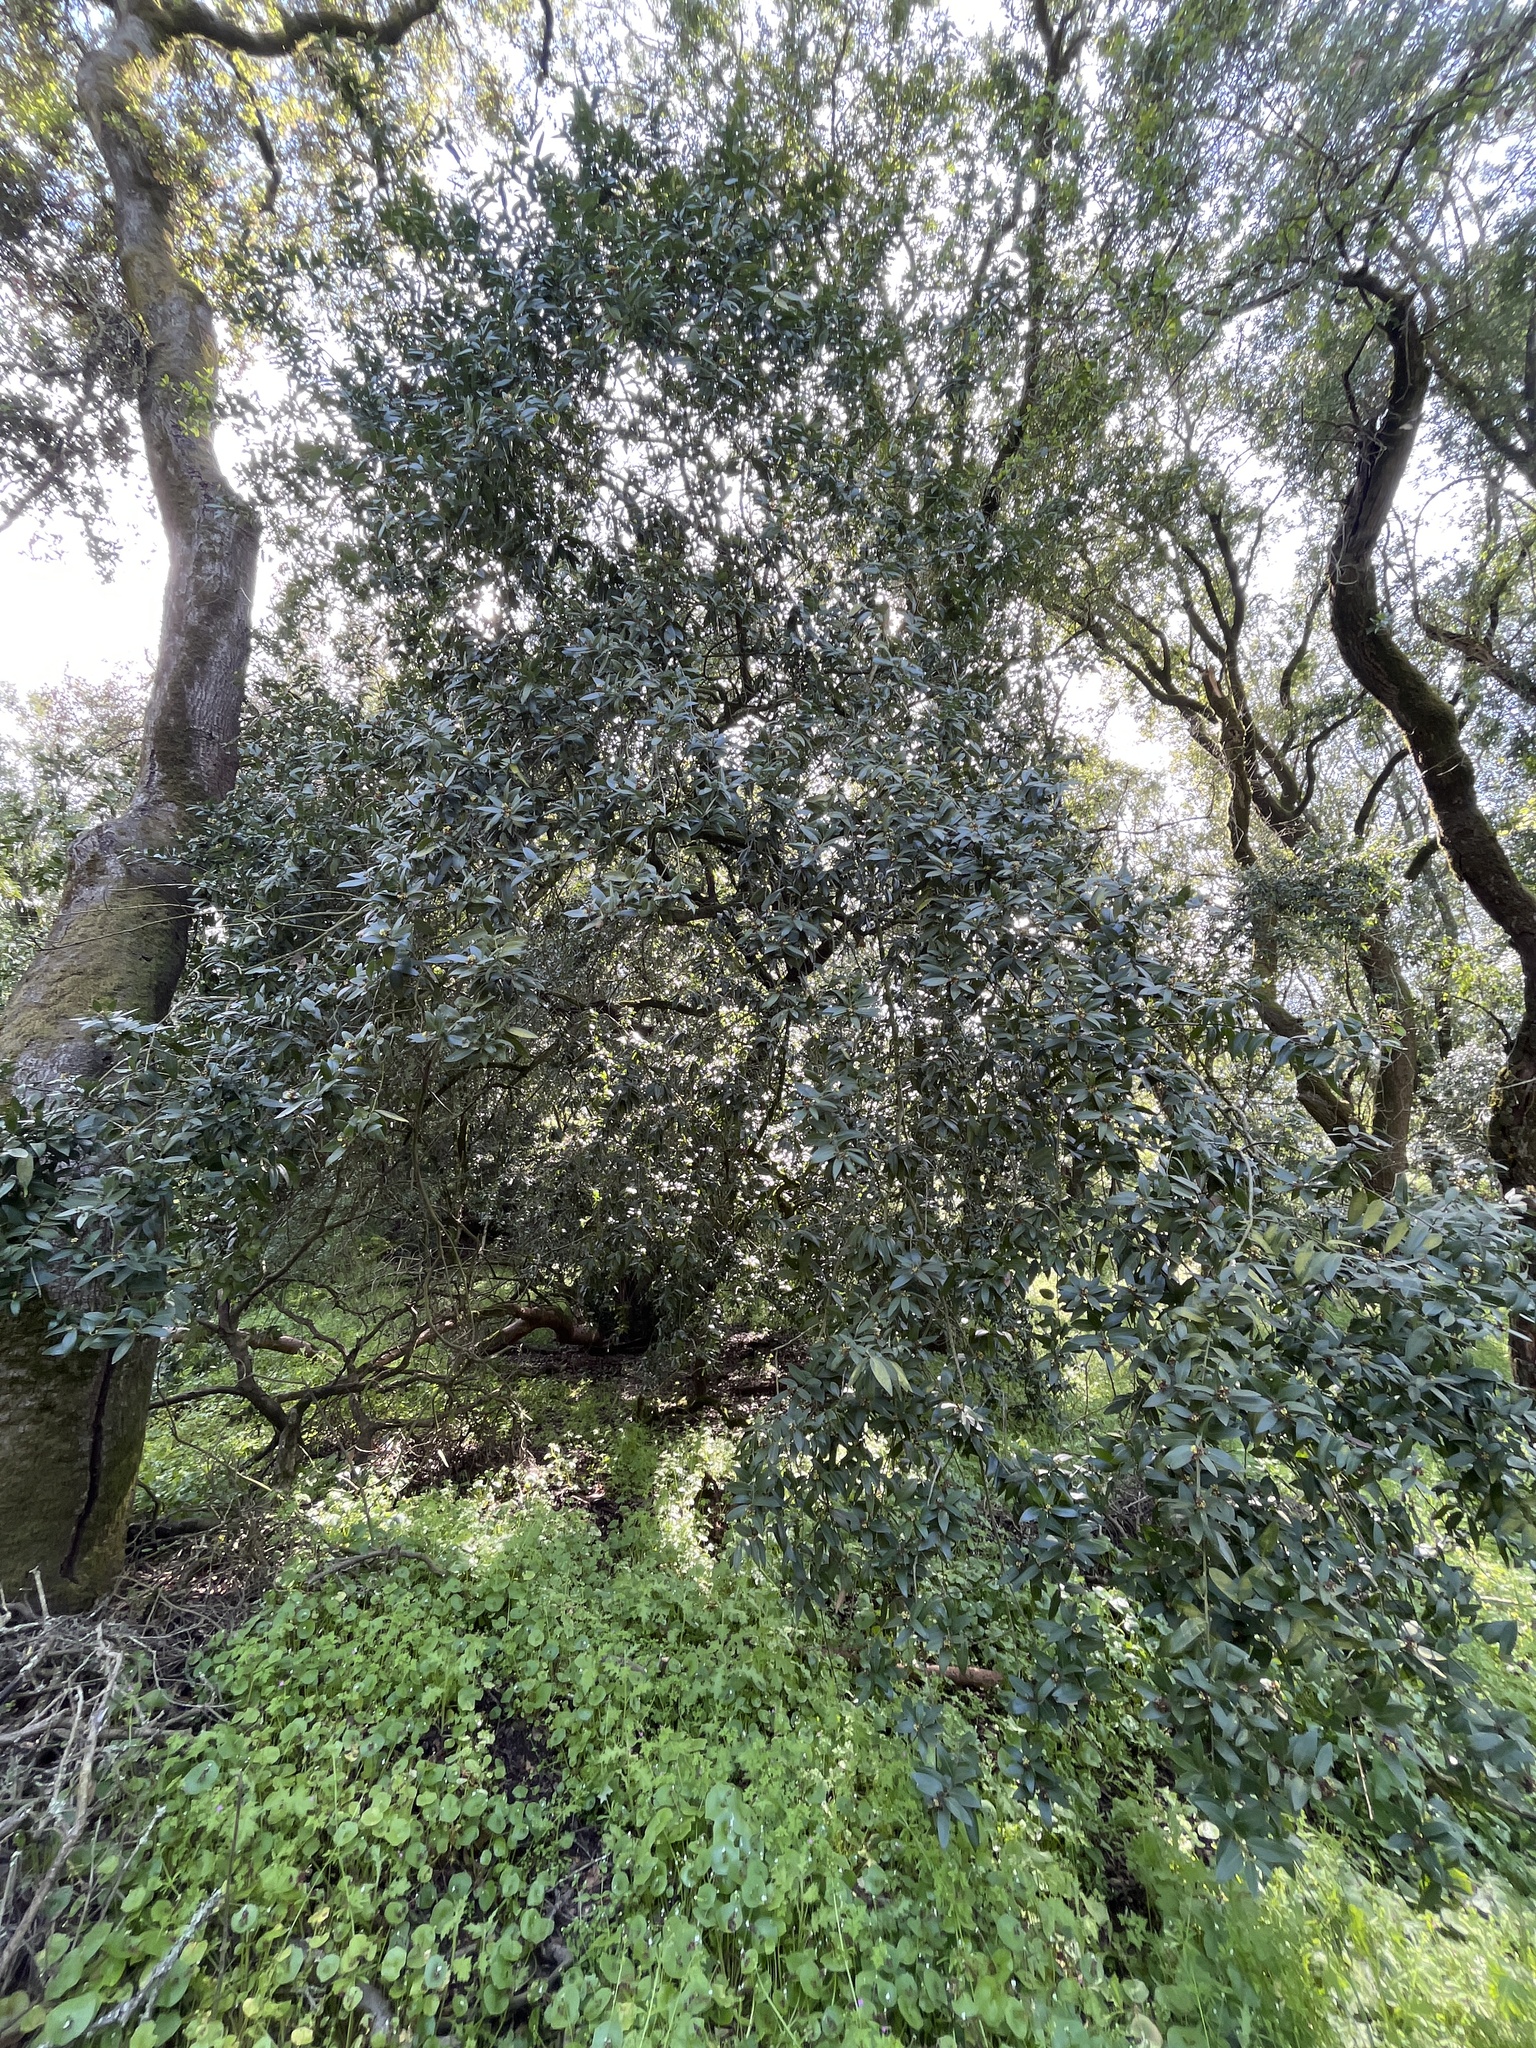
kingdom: Plantae
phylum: Tracheophyta
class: Magnoliopsida
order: Laurales
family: Lauraceae
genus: Umbellularia
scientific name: Umbellularia californica
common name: California bay
